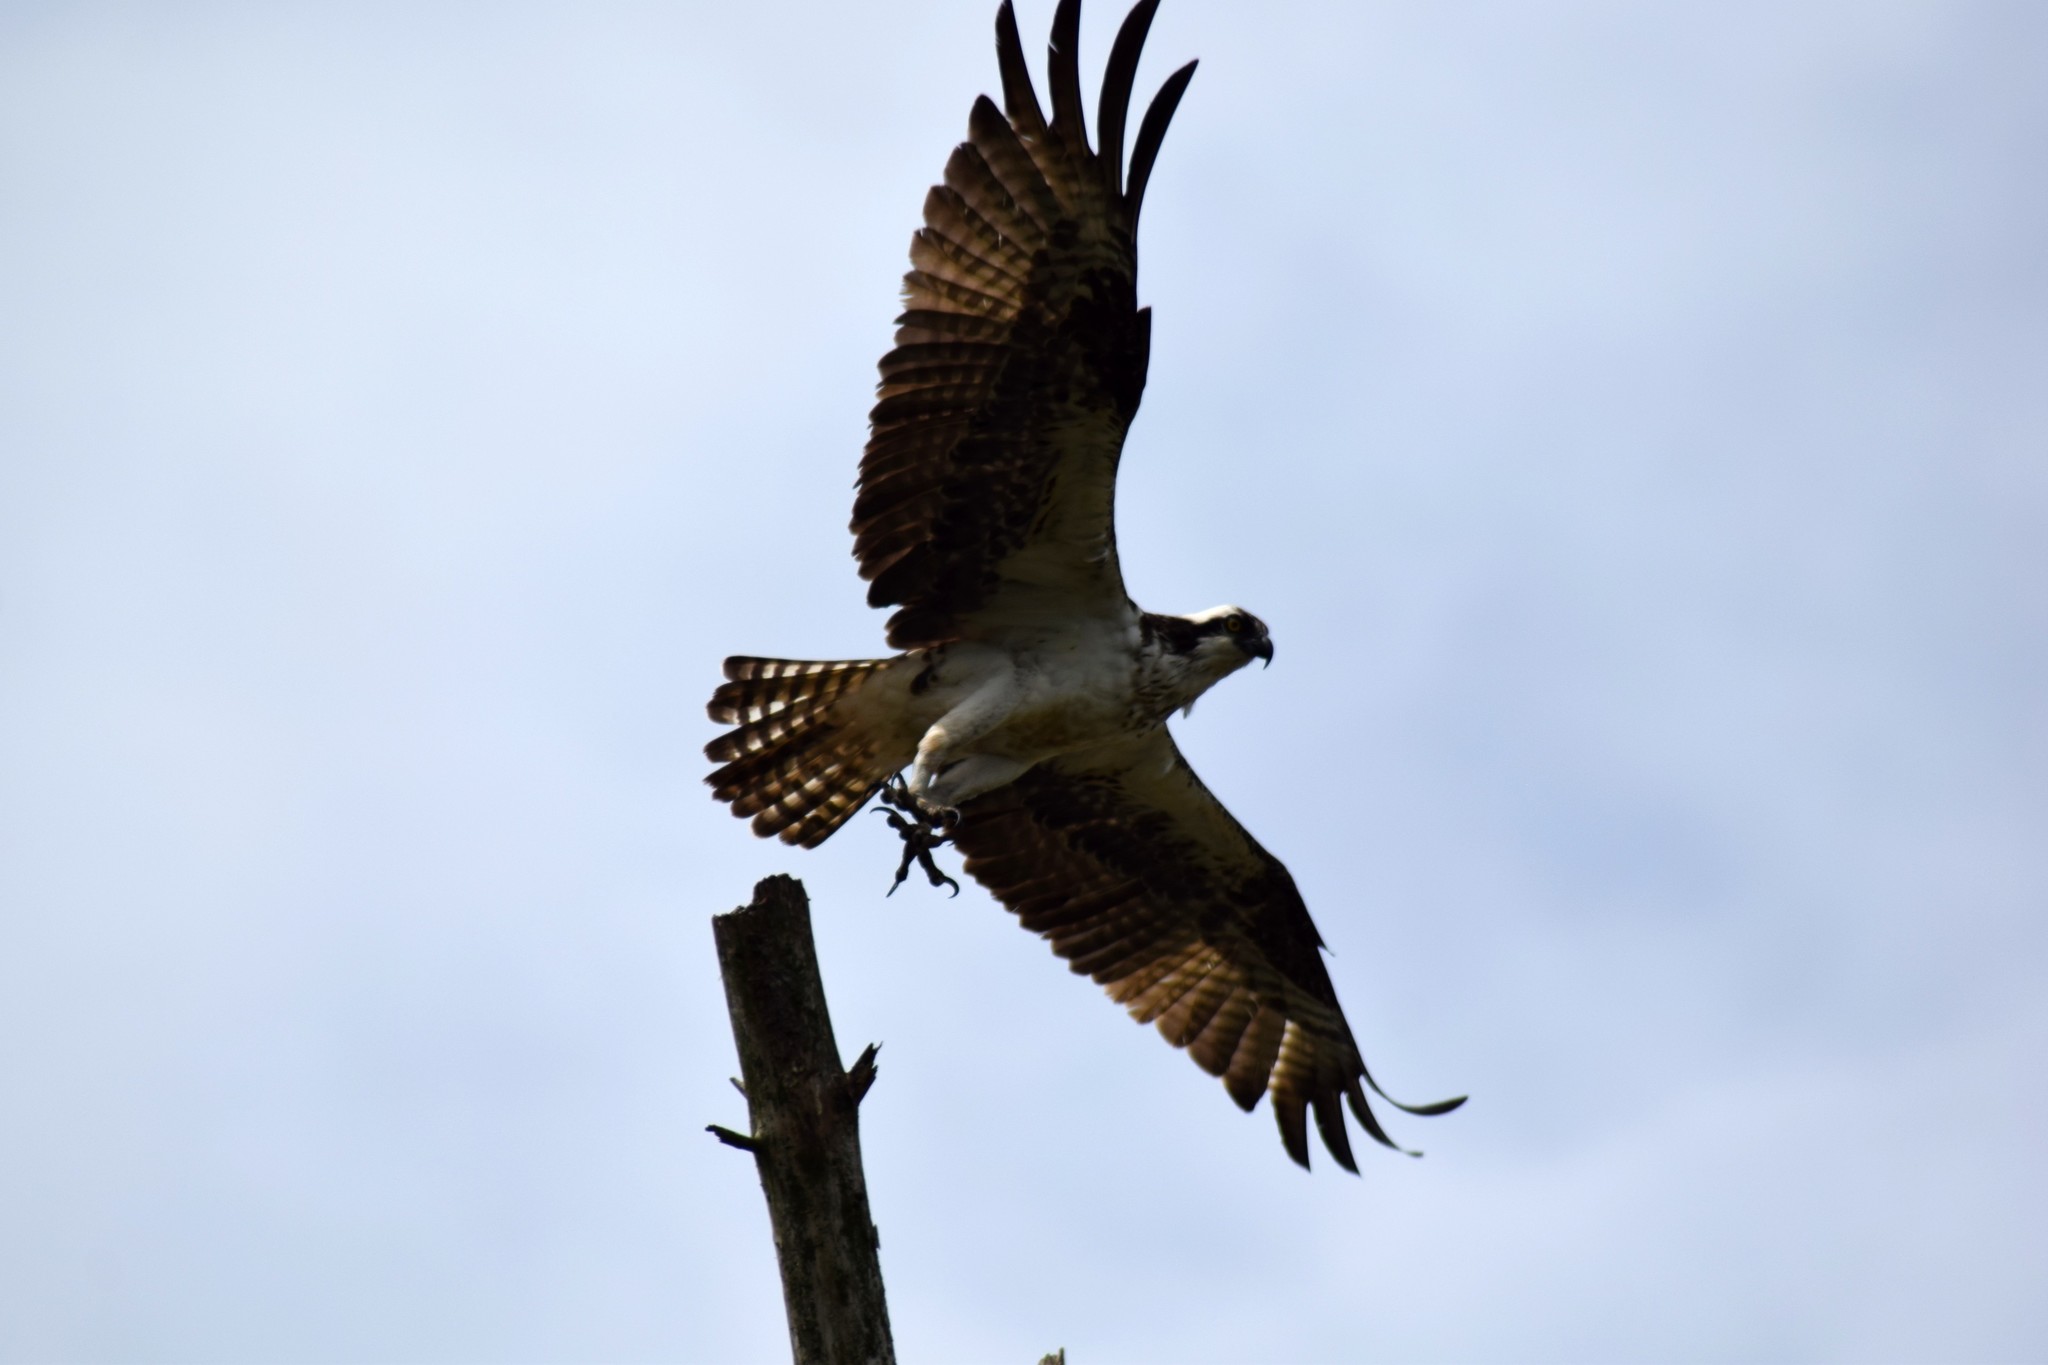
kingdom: Animalia
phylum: Chordata
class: Aves
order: Accipitriformes
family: Pandionidae
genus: Pandion
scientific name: Pandion haliaetus
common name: Osprey
